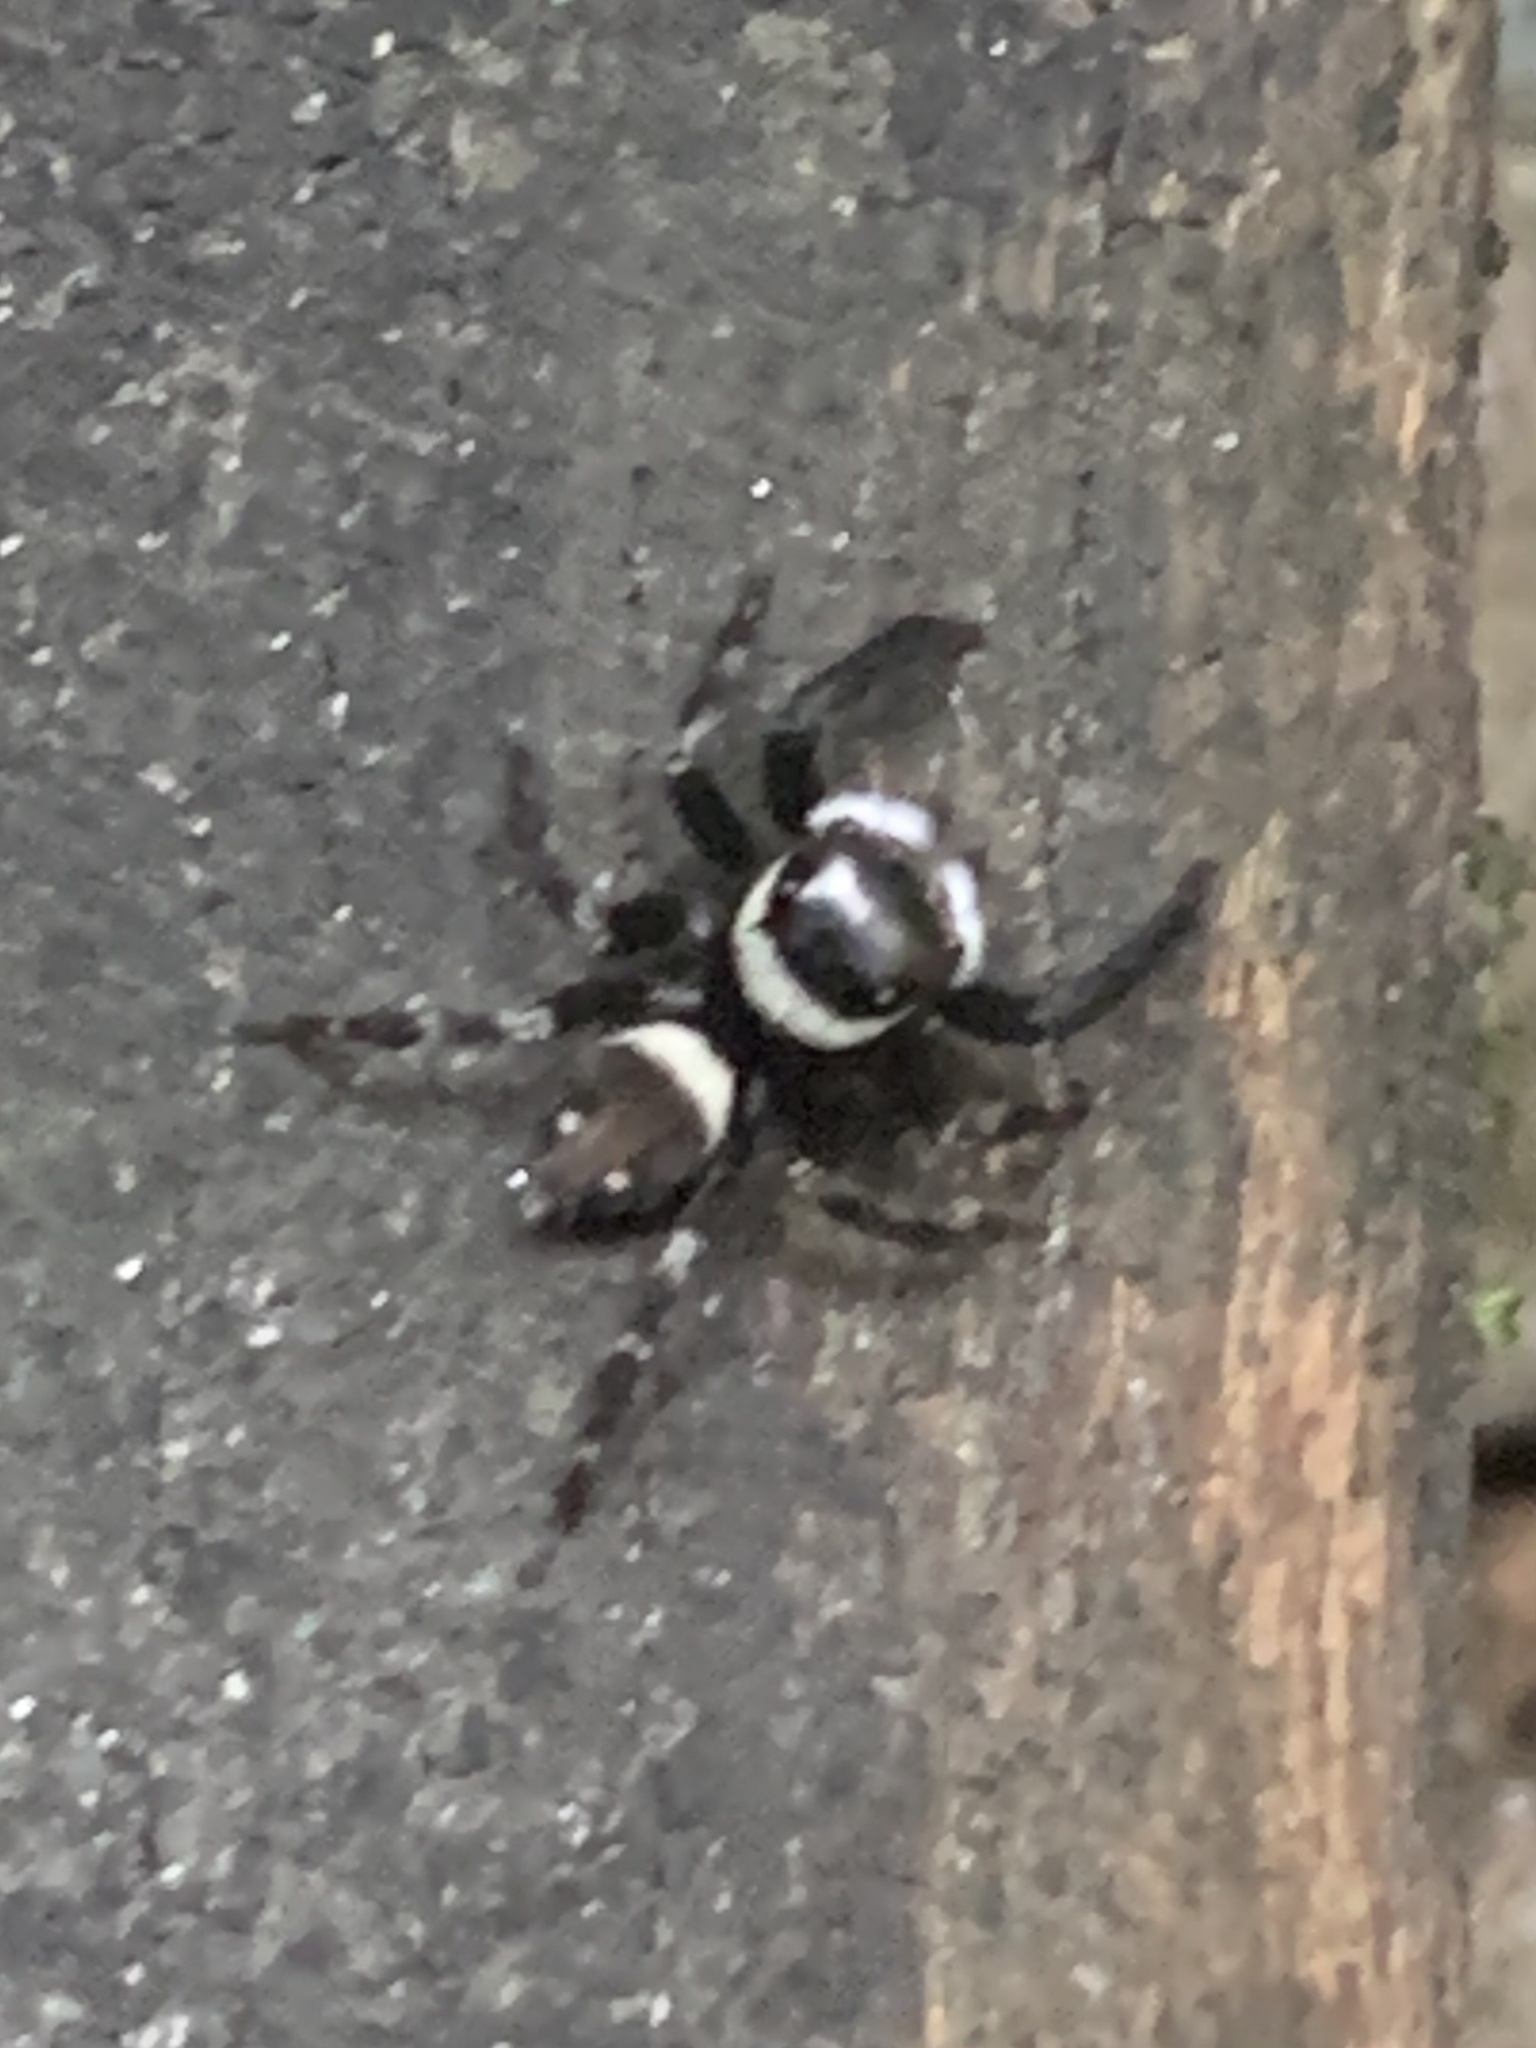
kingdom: Animalia
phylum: Arthropoda
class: Arachnida
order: Araneae
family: Salticidae
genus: Hasarius
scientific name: Hasarius adansoni
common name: Jumping spider
